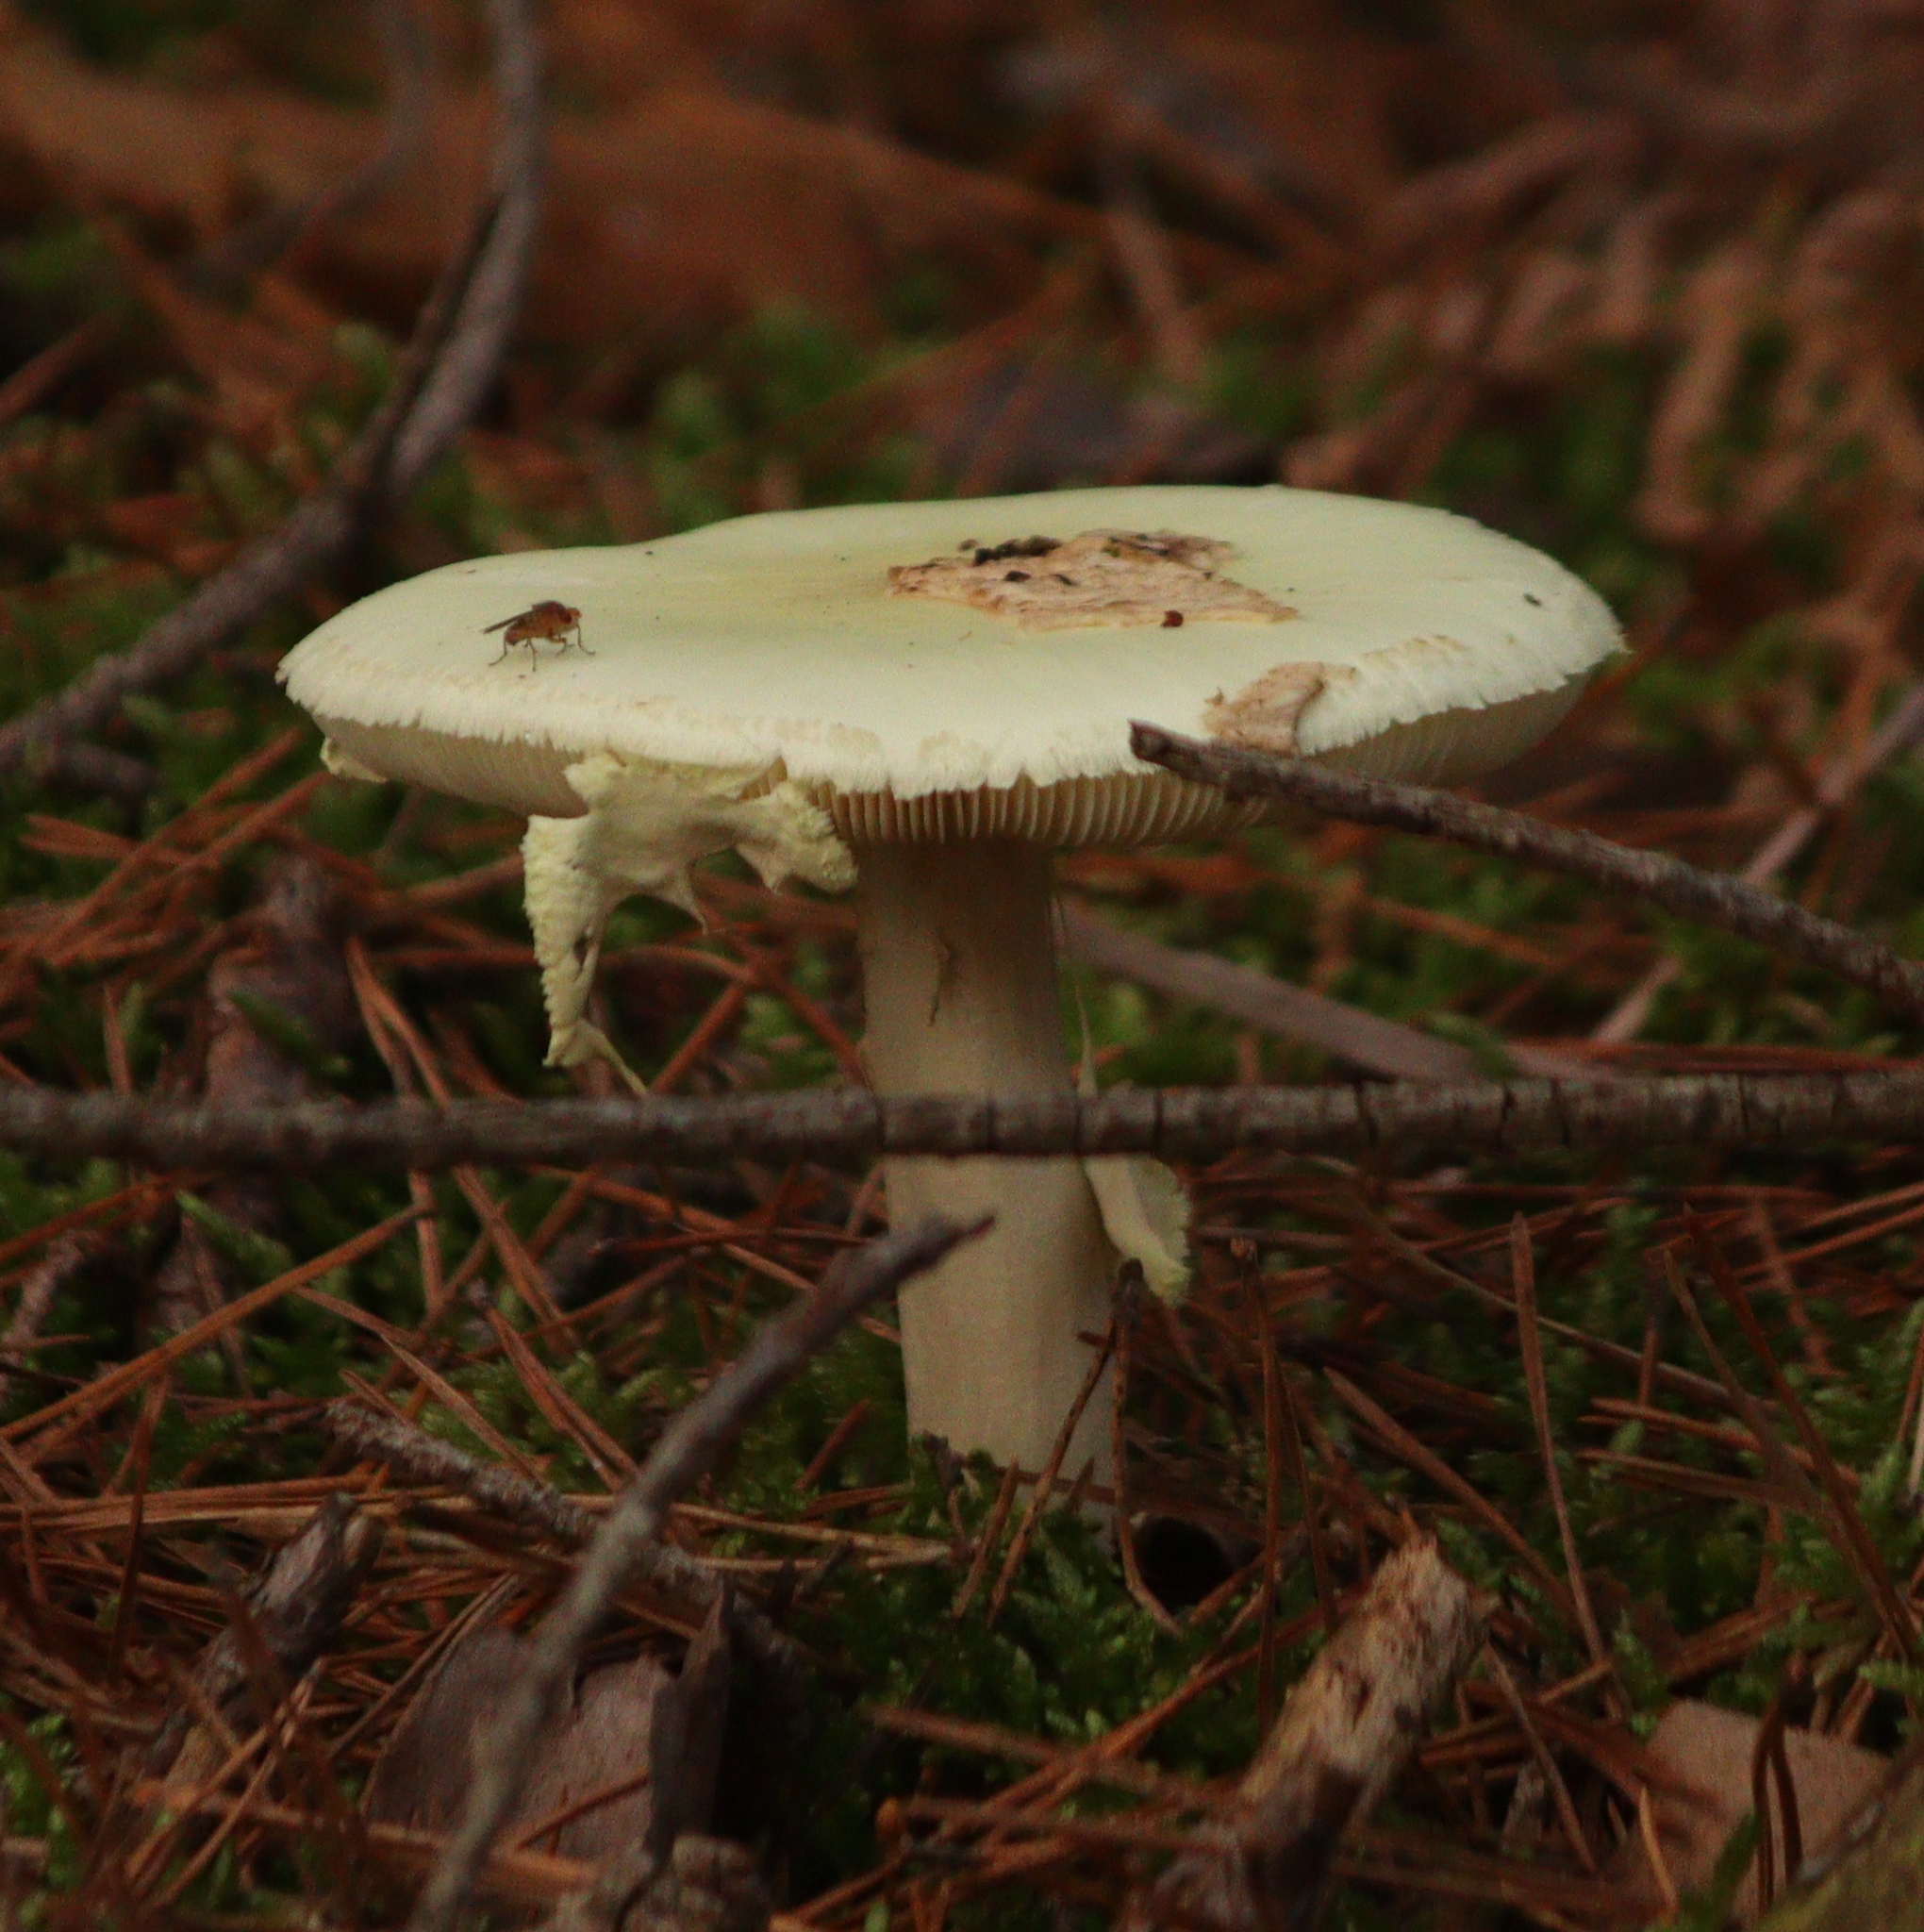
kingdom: Fungi
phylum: Basidiomycota
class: Agaricomycetes
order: Agaricales
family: Amanitaceae
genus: Amanita
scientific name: Amanita citrina
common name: False death-cap
